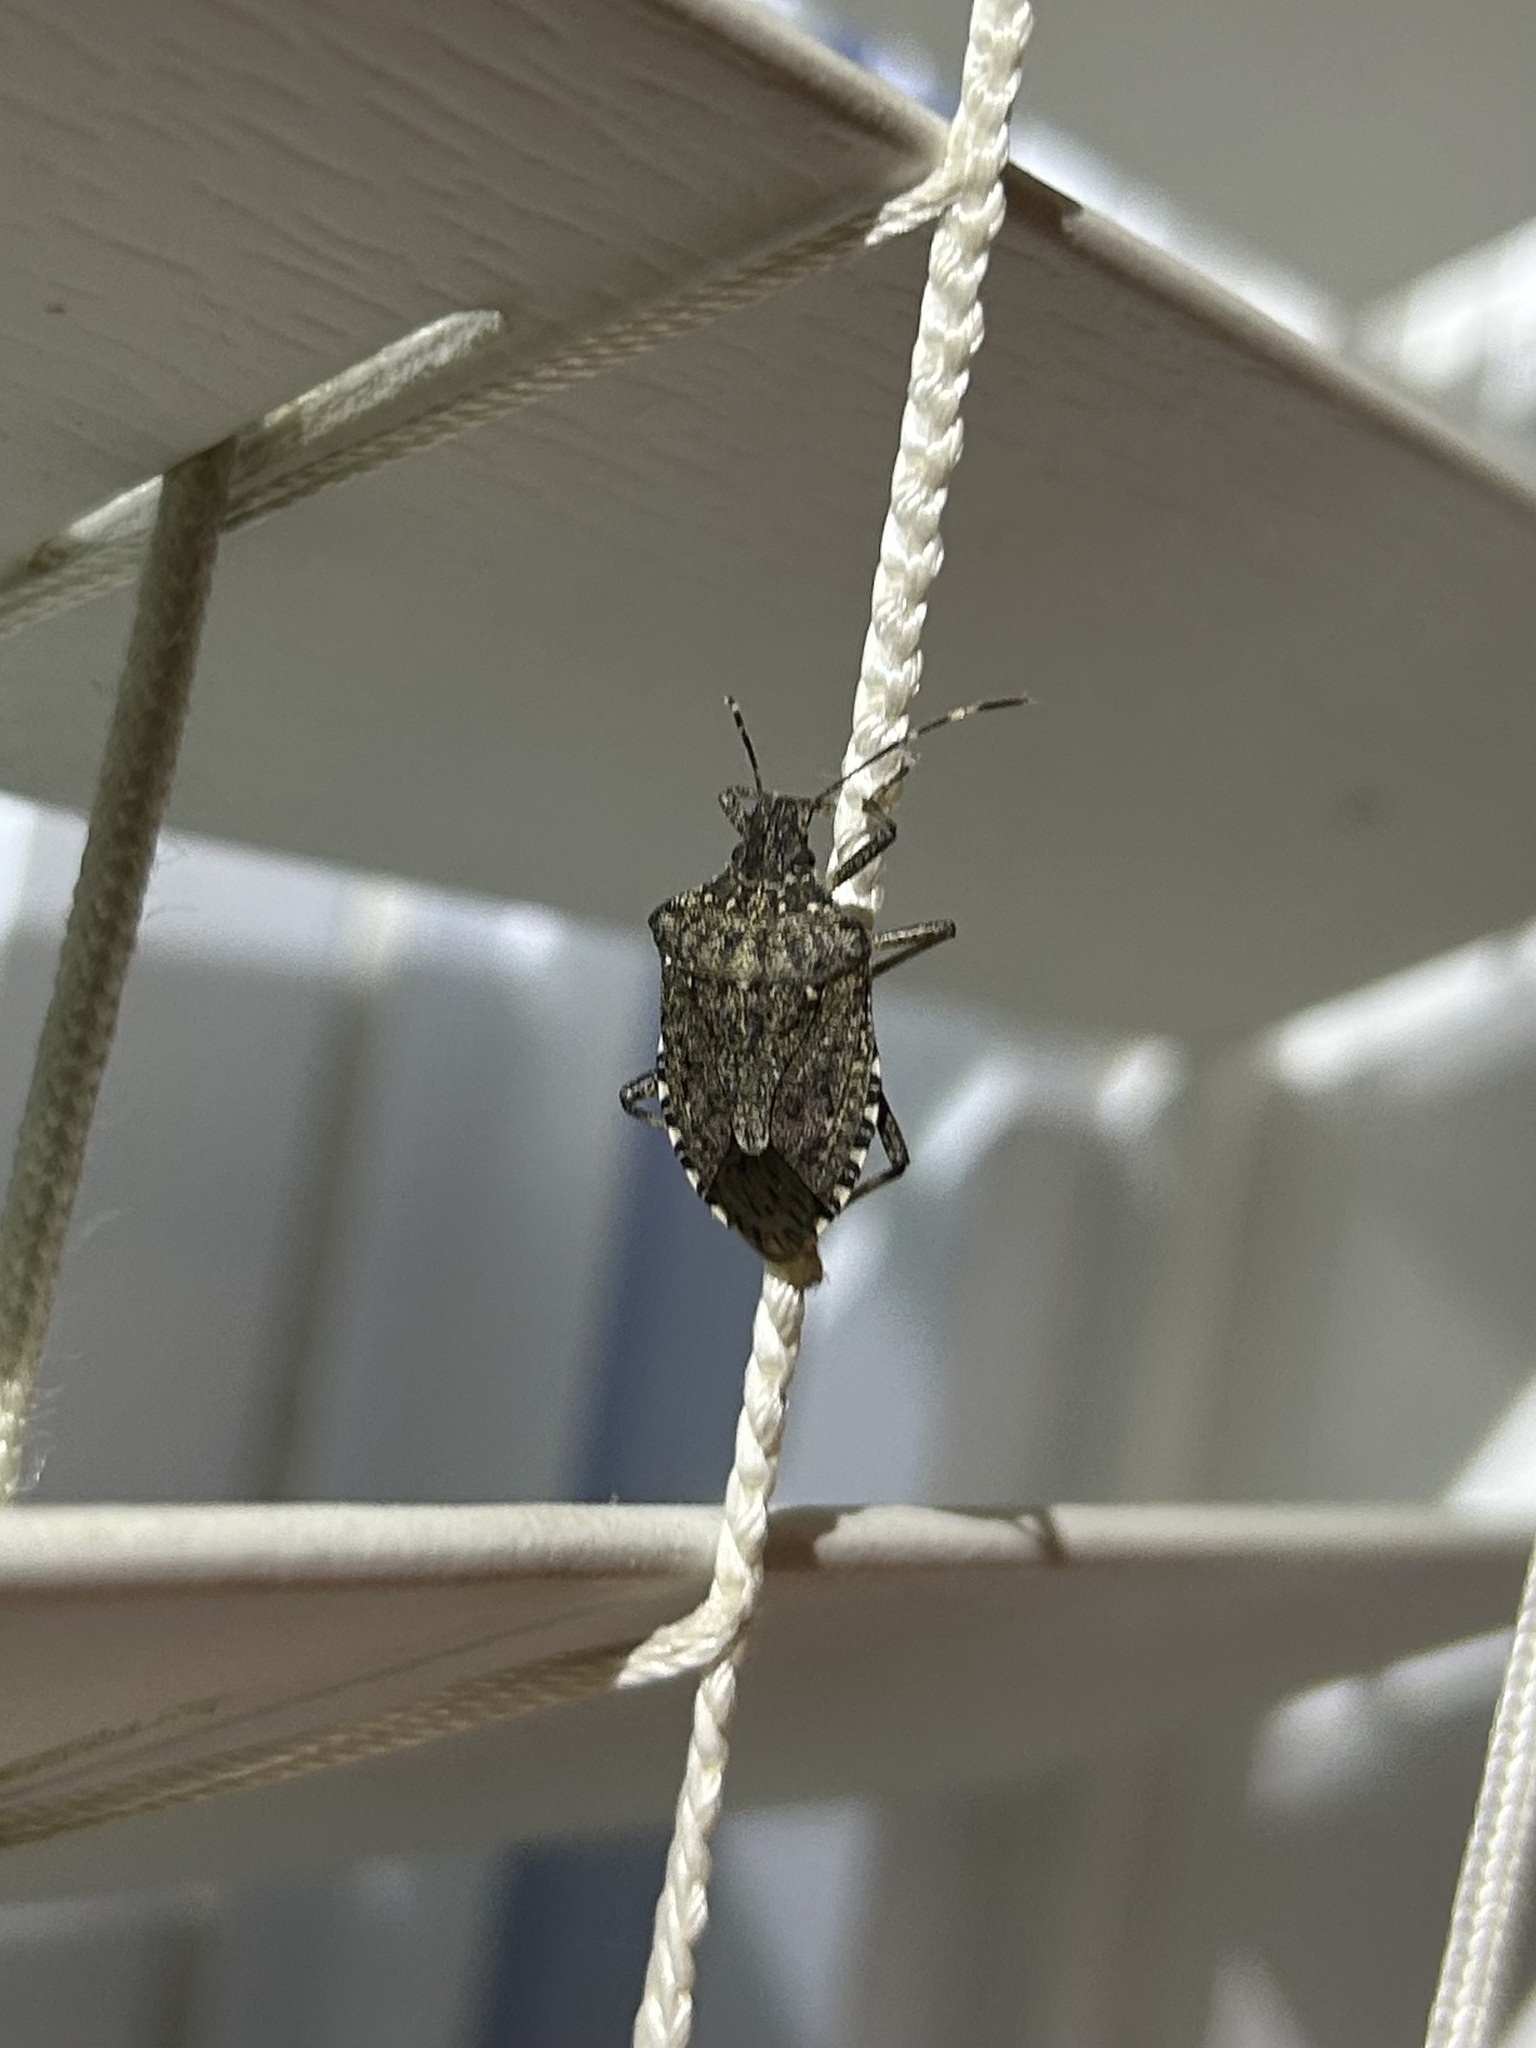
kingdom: Animalia
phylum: Arthropoda
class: Insecta
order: Hemiptera
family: Pentatomidae
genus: Halyomorpha
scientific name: Halyomorpha halys
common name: Brown marmorated stink bug
